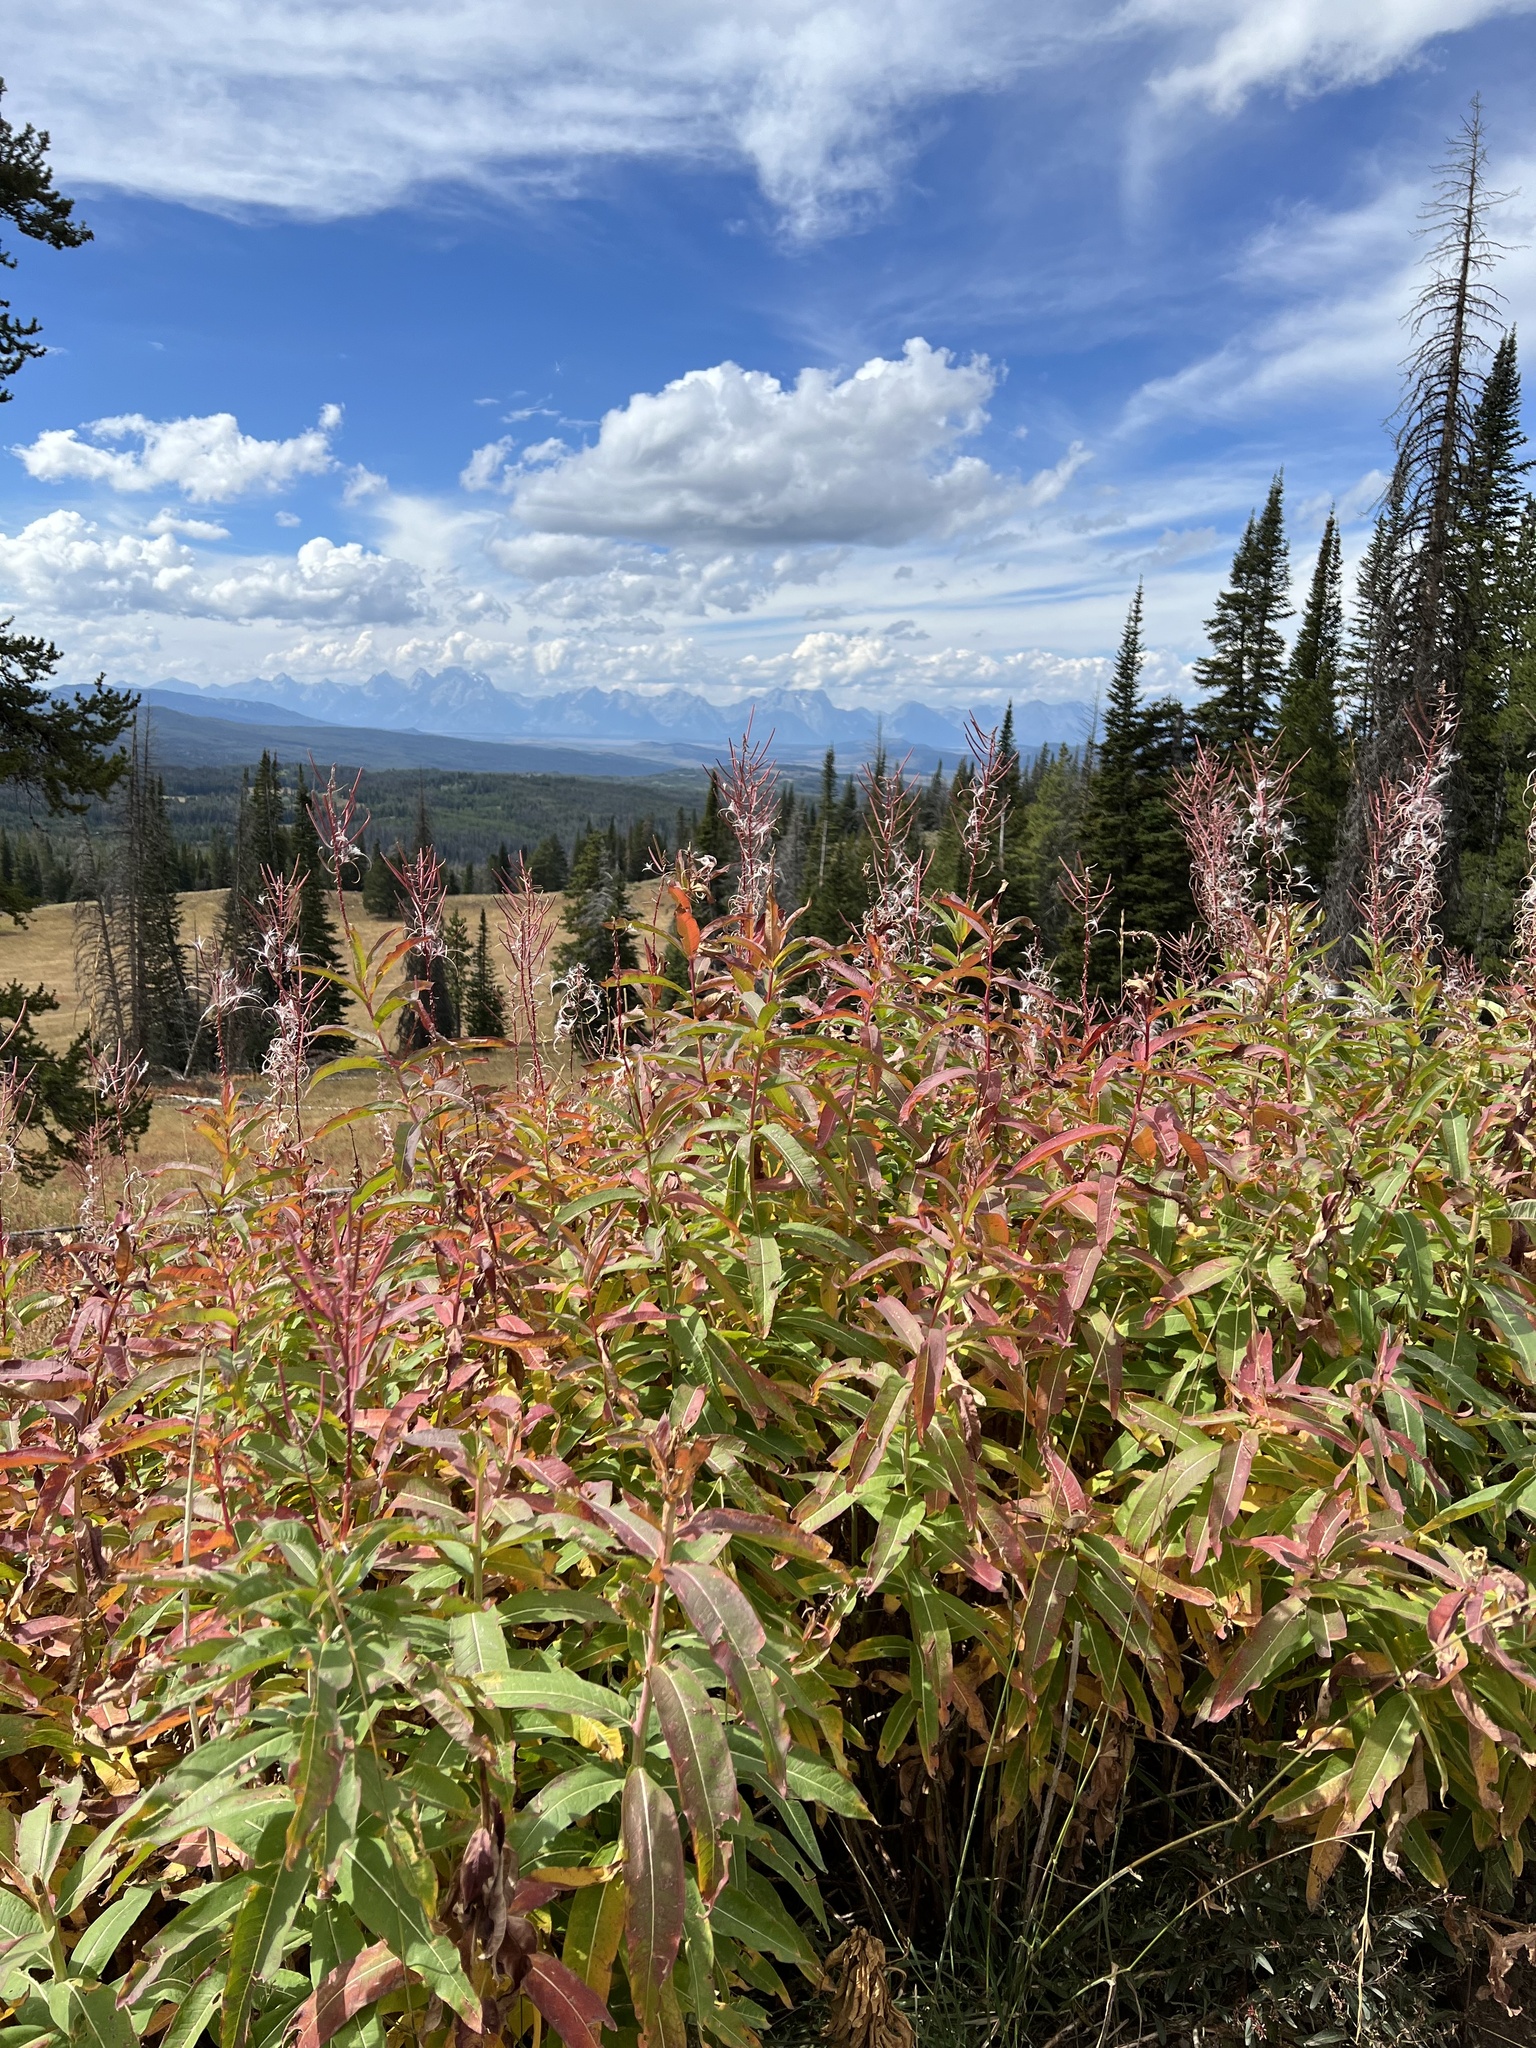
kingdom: Plantae
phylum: Tracheophyta
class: Magnoliopsida
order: Myrtales
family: Onagraceae
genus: Chamaenerion
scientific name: Chamaenerion angustifolium
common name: Fireweed
